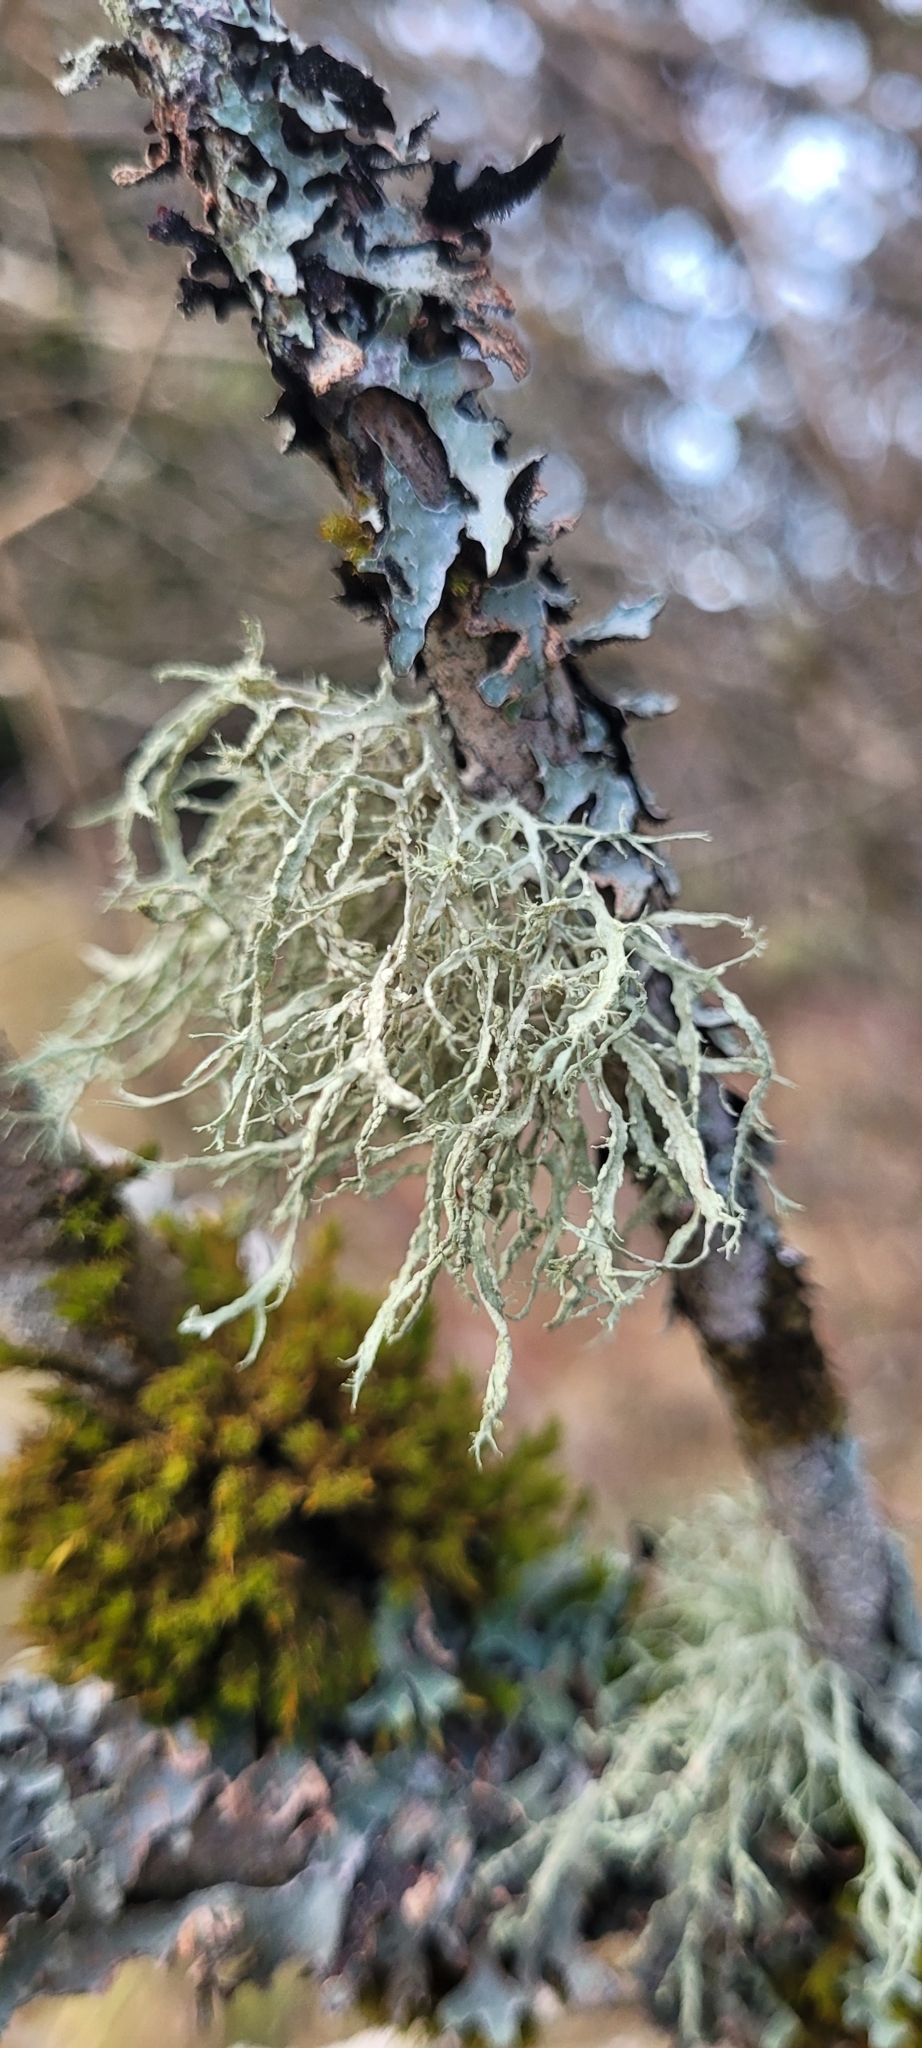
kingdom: Fungi
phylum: Ascomycota
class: Lecanoromycetes
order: Lecanorales
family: Ramalinaceae
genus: Ramalina
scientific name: Ramalina farinacea
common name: Farinose cartilage lichen
